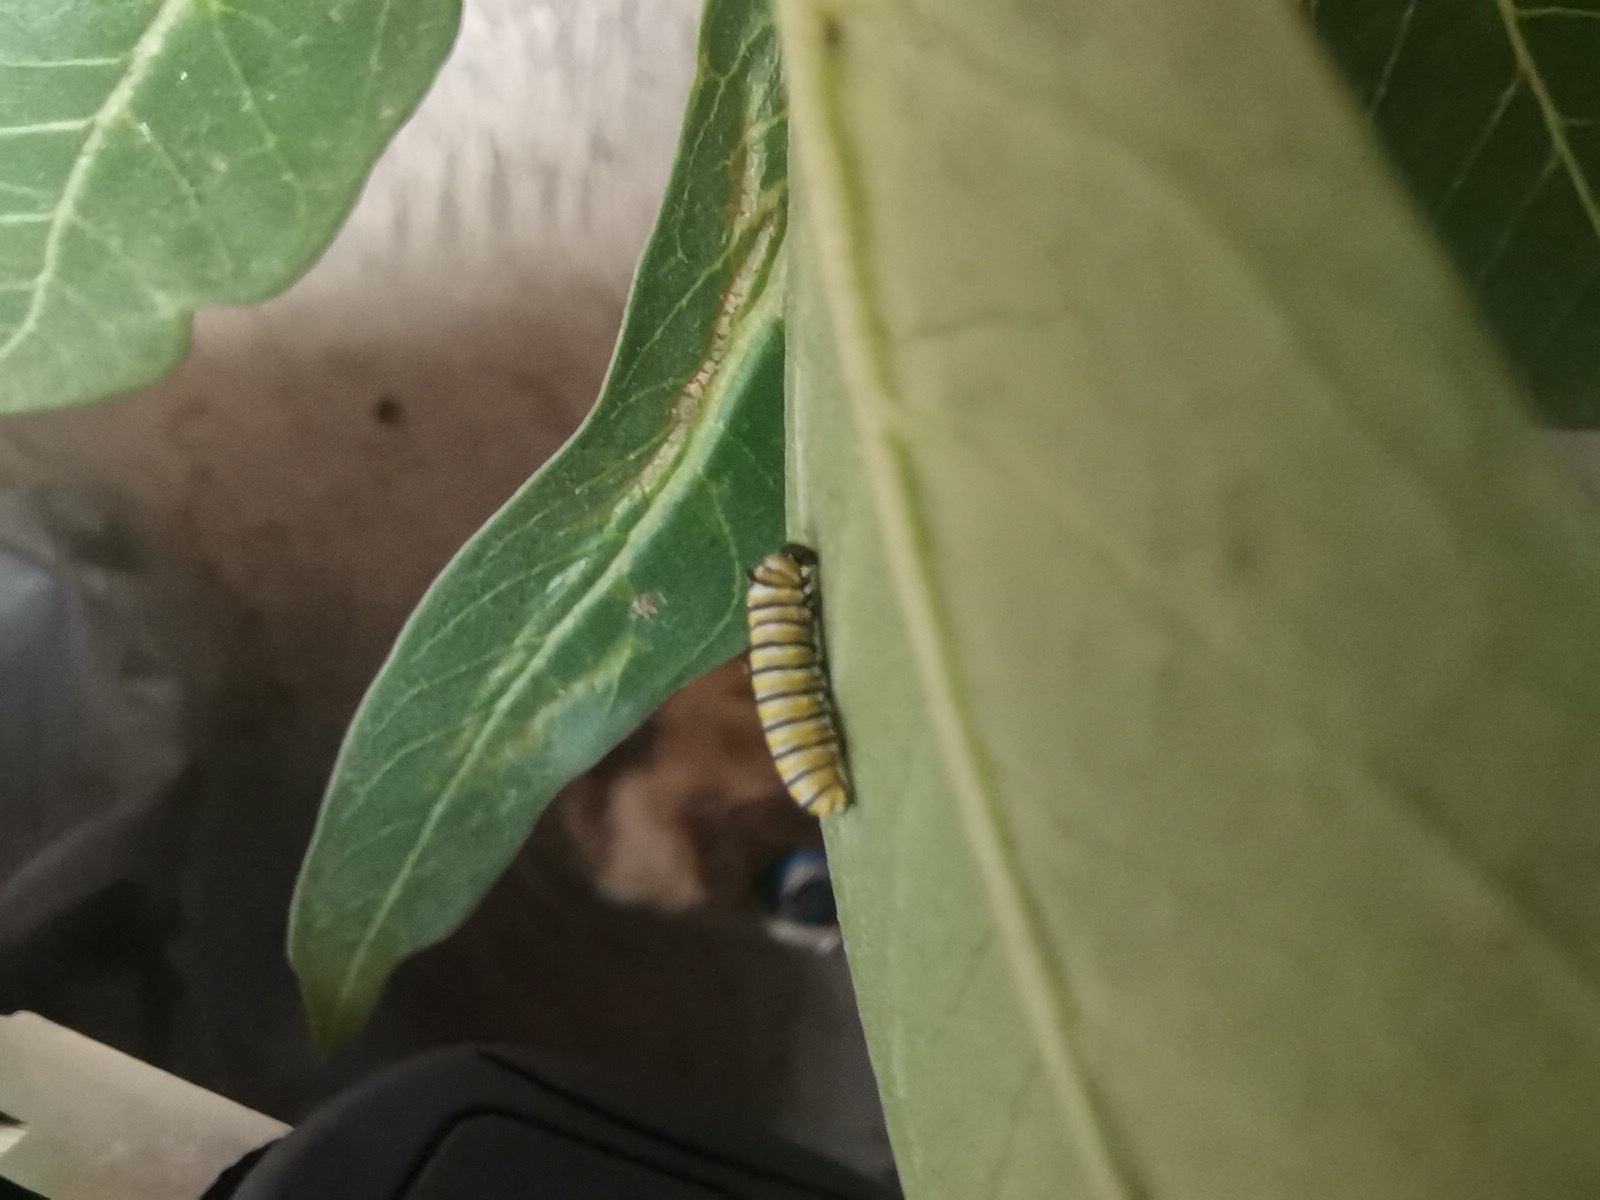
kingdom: Plantae
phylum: Tracheophyta
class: Magnoliopsida
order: Gentianales
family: Apocynaceae
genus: Asclepias
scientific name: Asclepias curassavica
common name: Bloodflower
